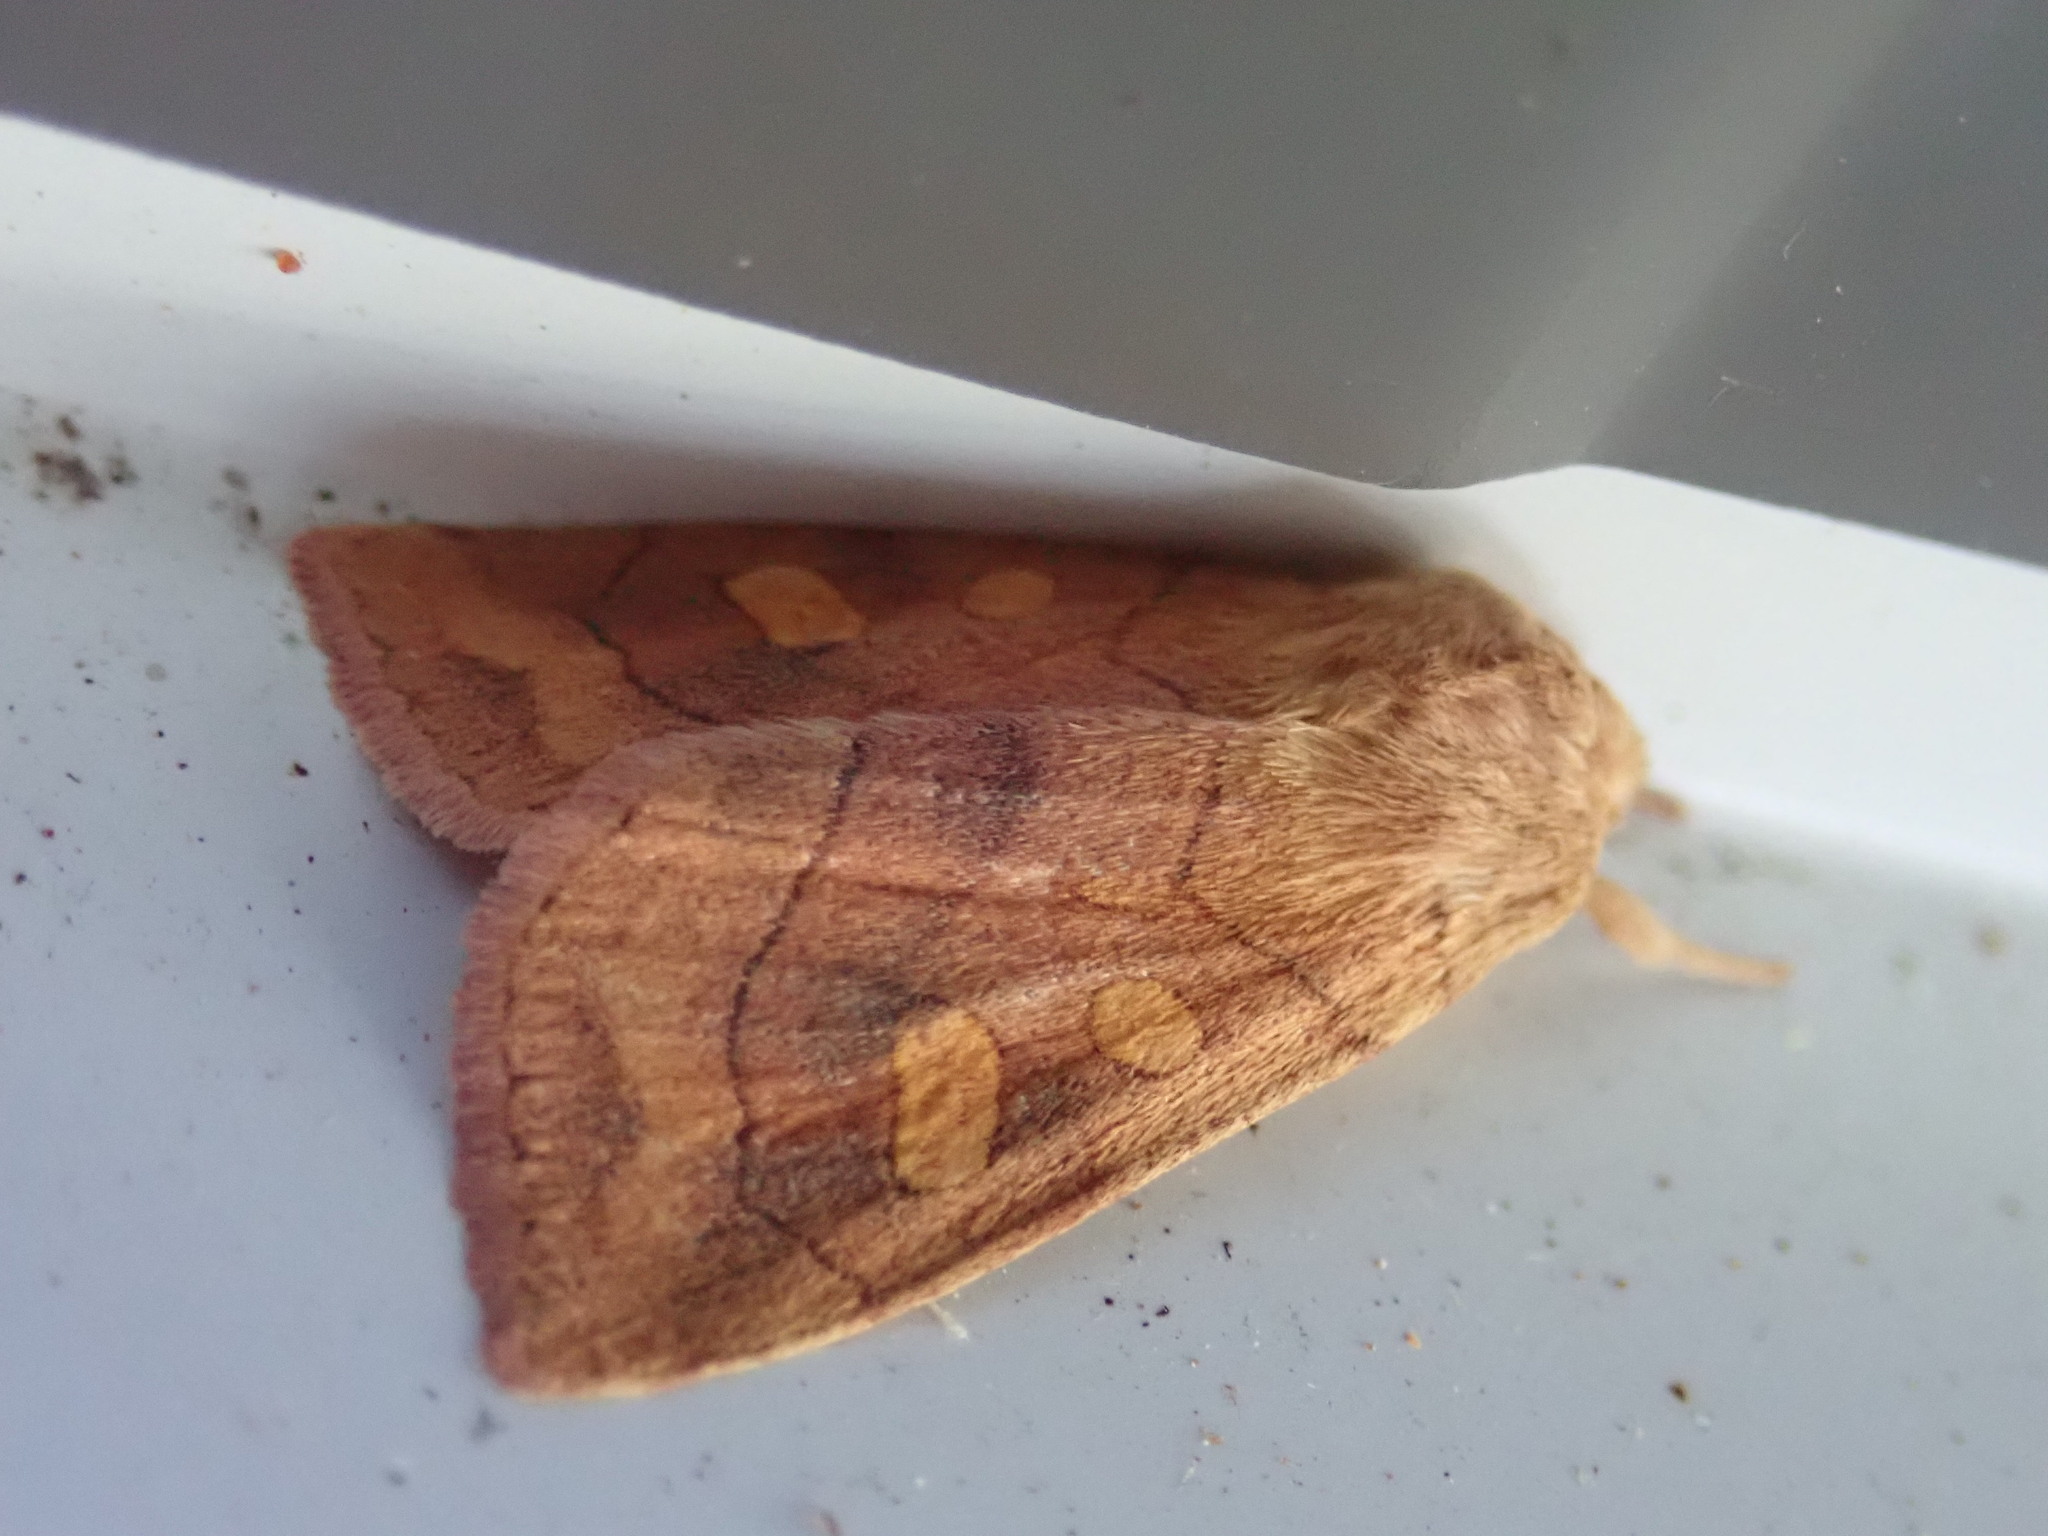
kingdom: Animalia
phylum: Arthropoda
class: Insecta
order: Lepidoptera
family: Noctuidae
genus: Enargia
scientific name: Enargia decolor
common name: Aspen twoleaf tier moth
